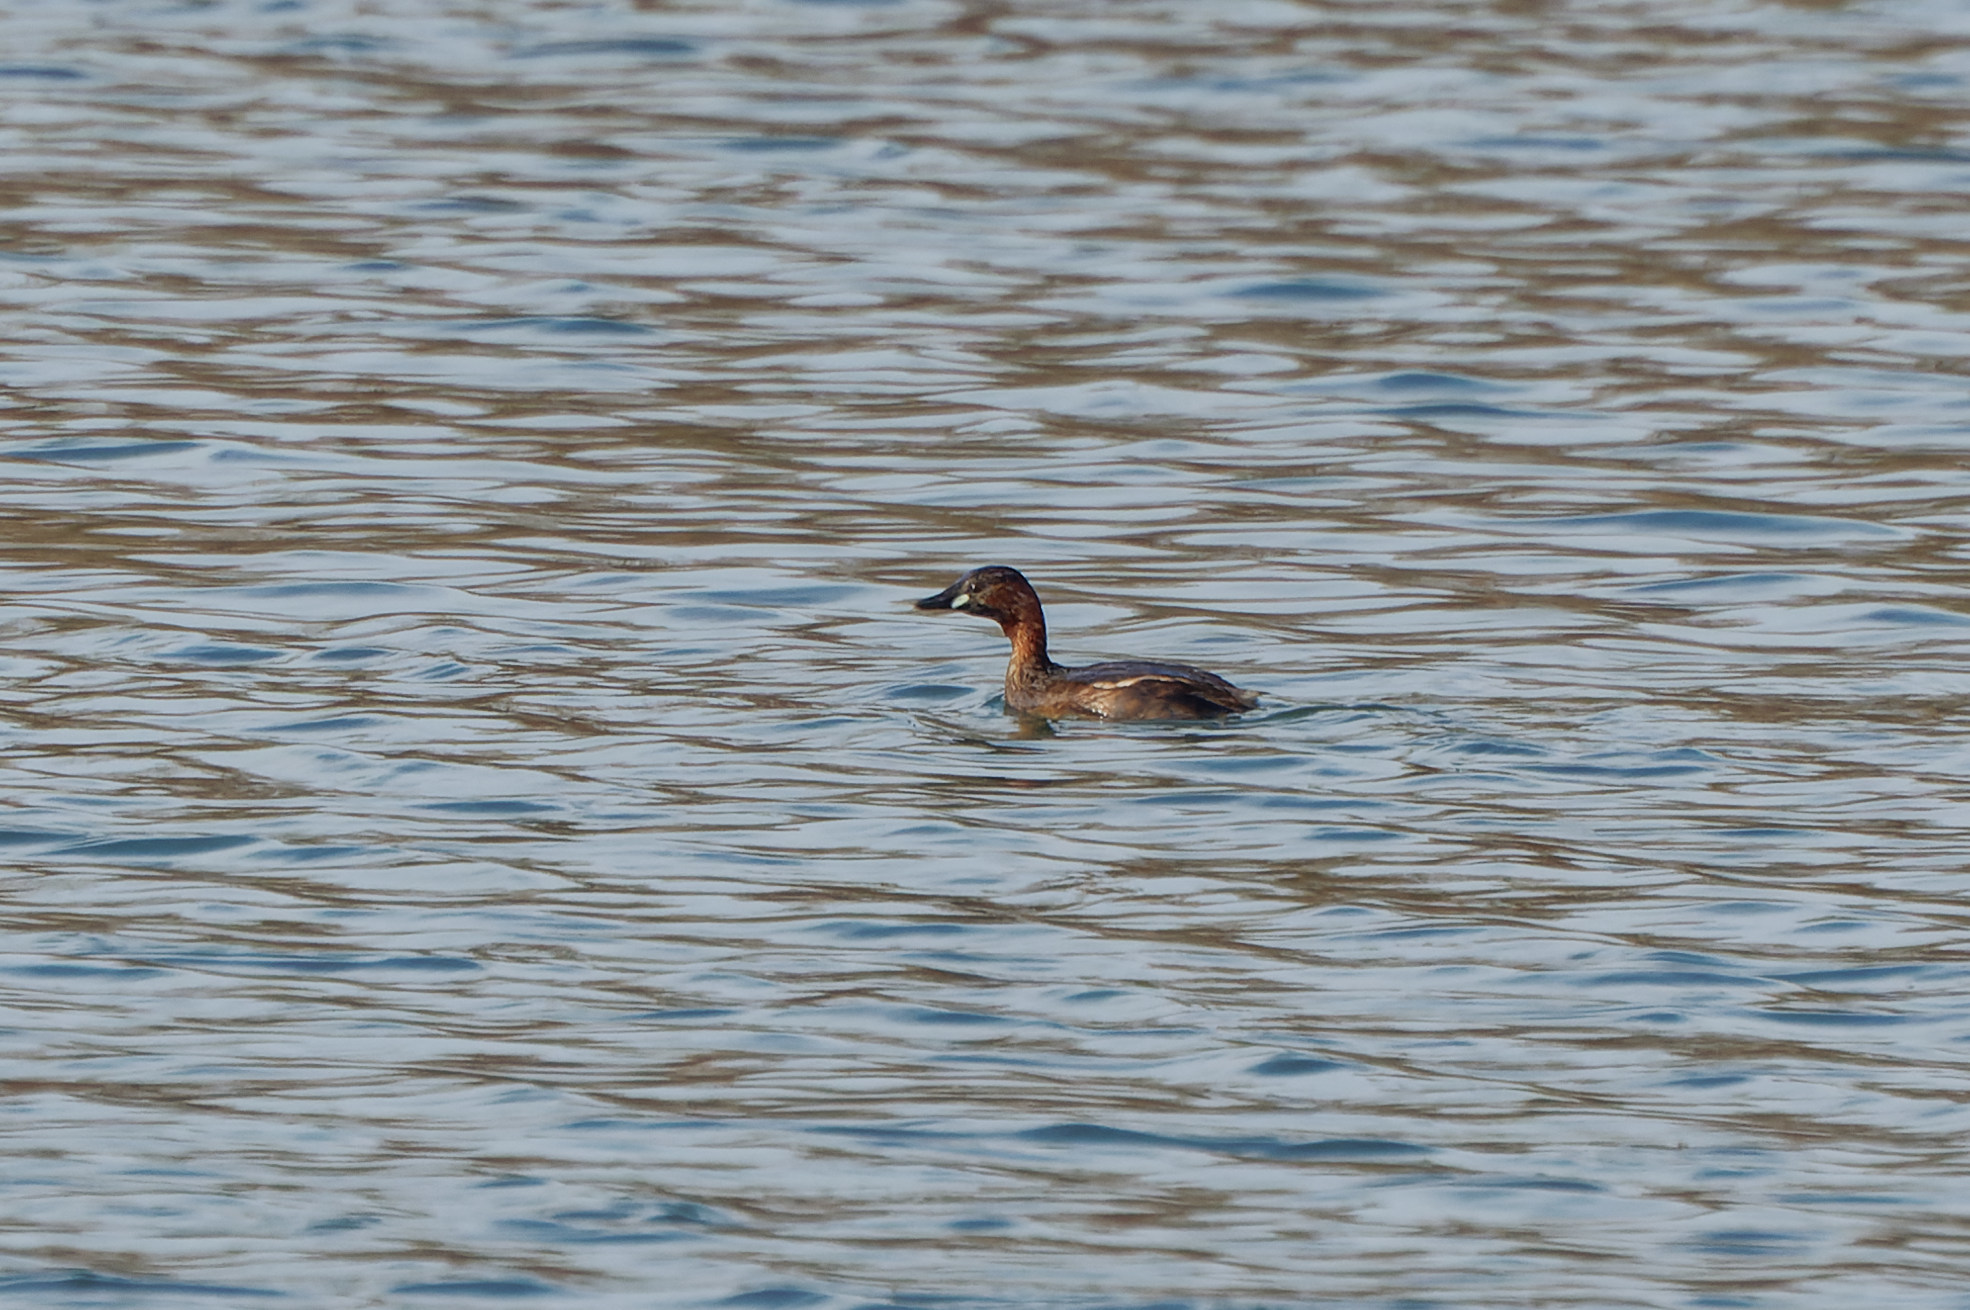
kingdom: Animalia
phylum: Chordata
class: Aves
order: Podicipediformes
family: Podicipedidae
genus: Tachybaptus
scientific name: Tachybaptus ruficollis
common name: Little grebe
